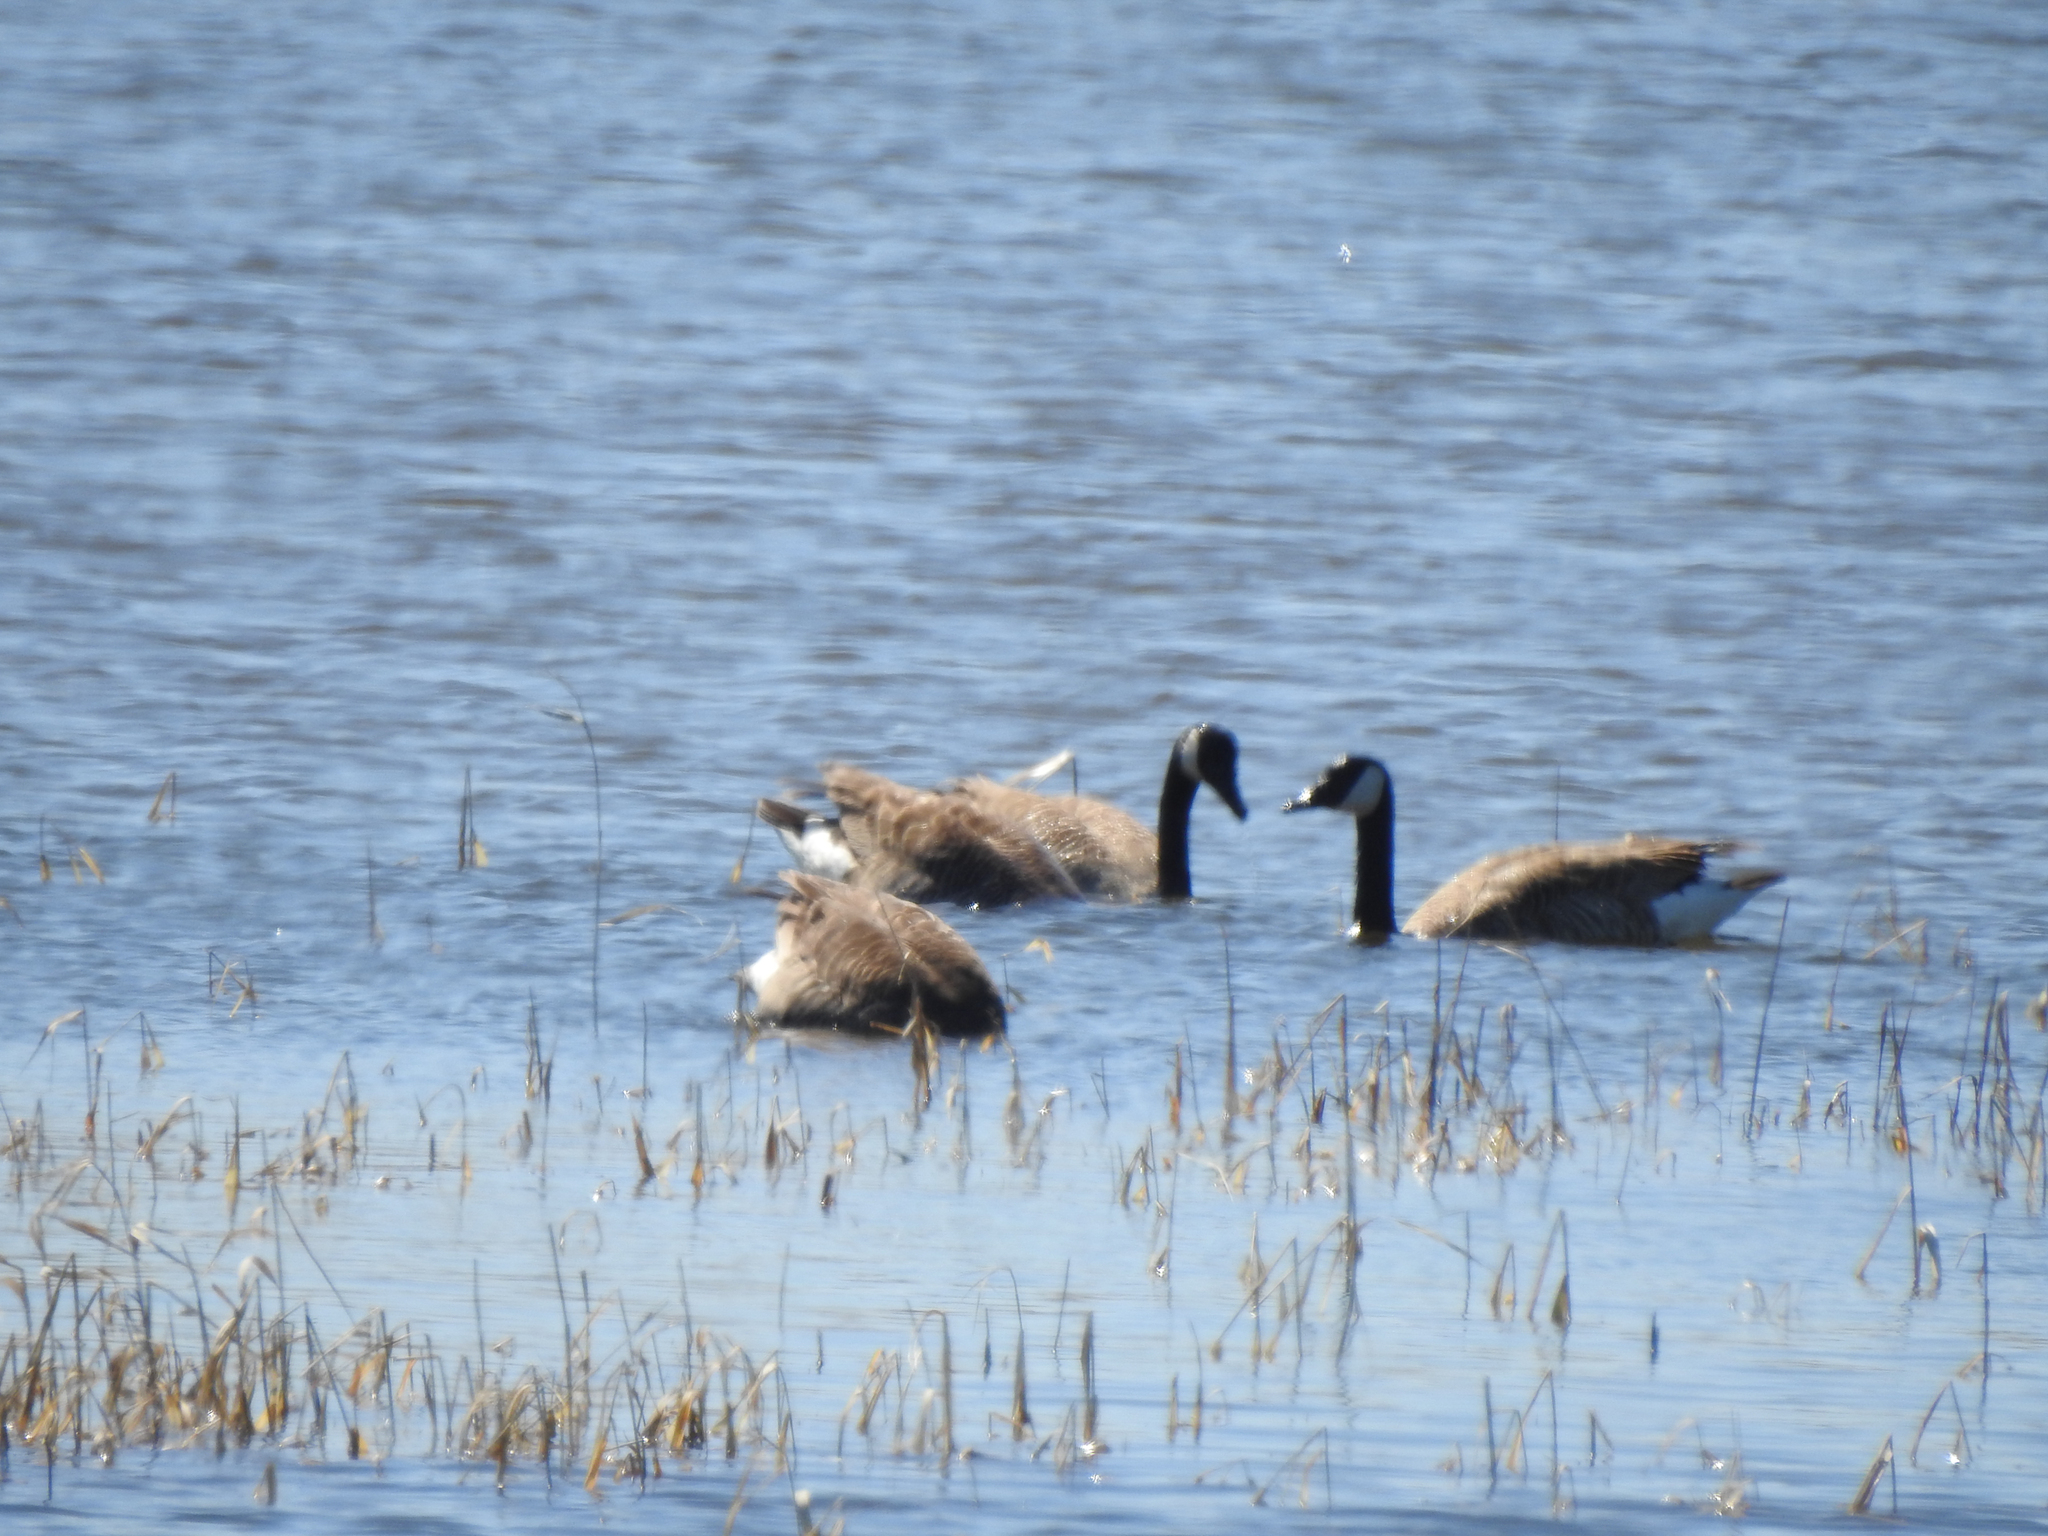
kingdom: Animalia
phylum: Chordata
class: Aves
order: Anseriformes
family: Anatidae
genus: Branta
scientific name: Branta canadensis
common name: Canada goose
